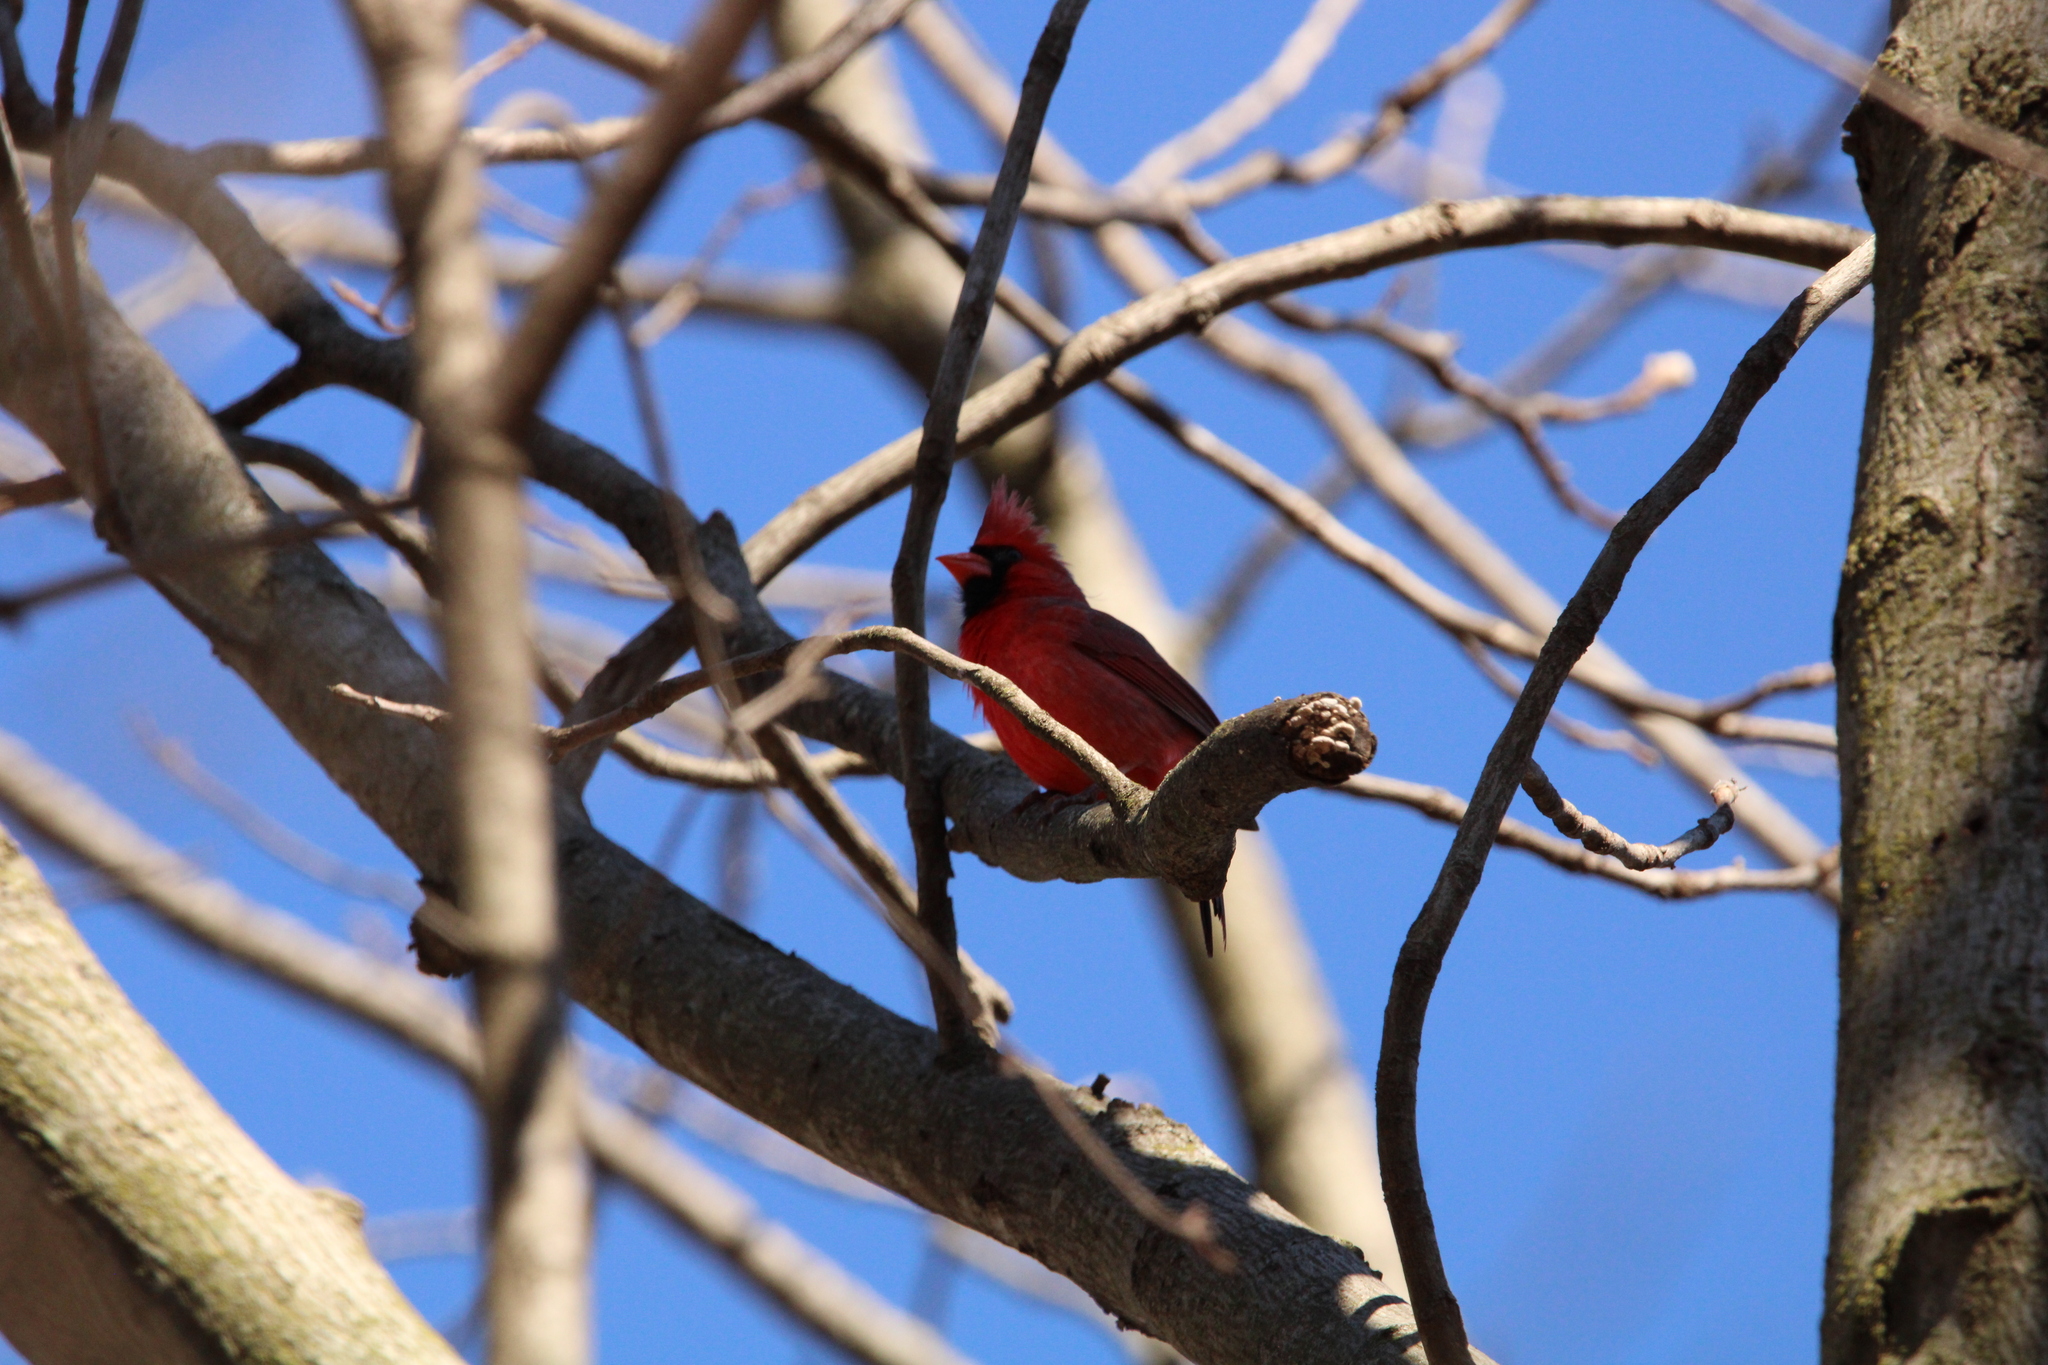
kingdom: Animalia
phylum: Chordata
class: Aves
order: Passeriformes
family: Cardinalidae
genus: Cardinalis
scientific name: Cardinalis cardinalis
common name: Northern cardinal
